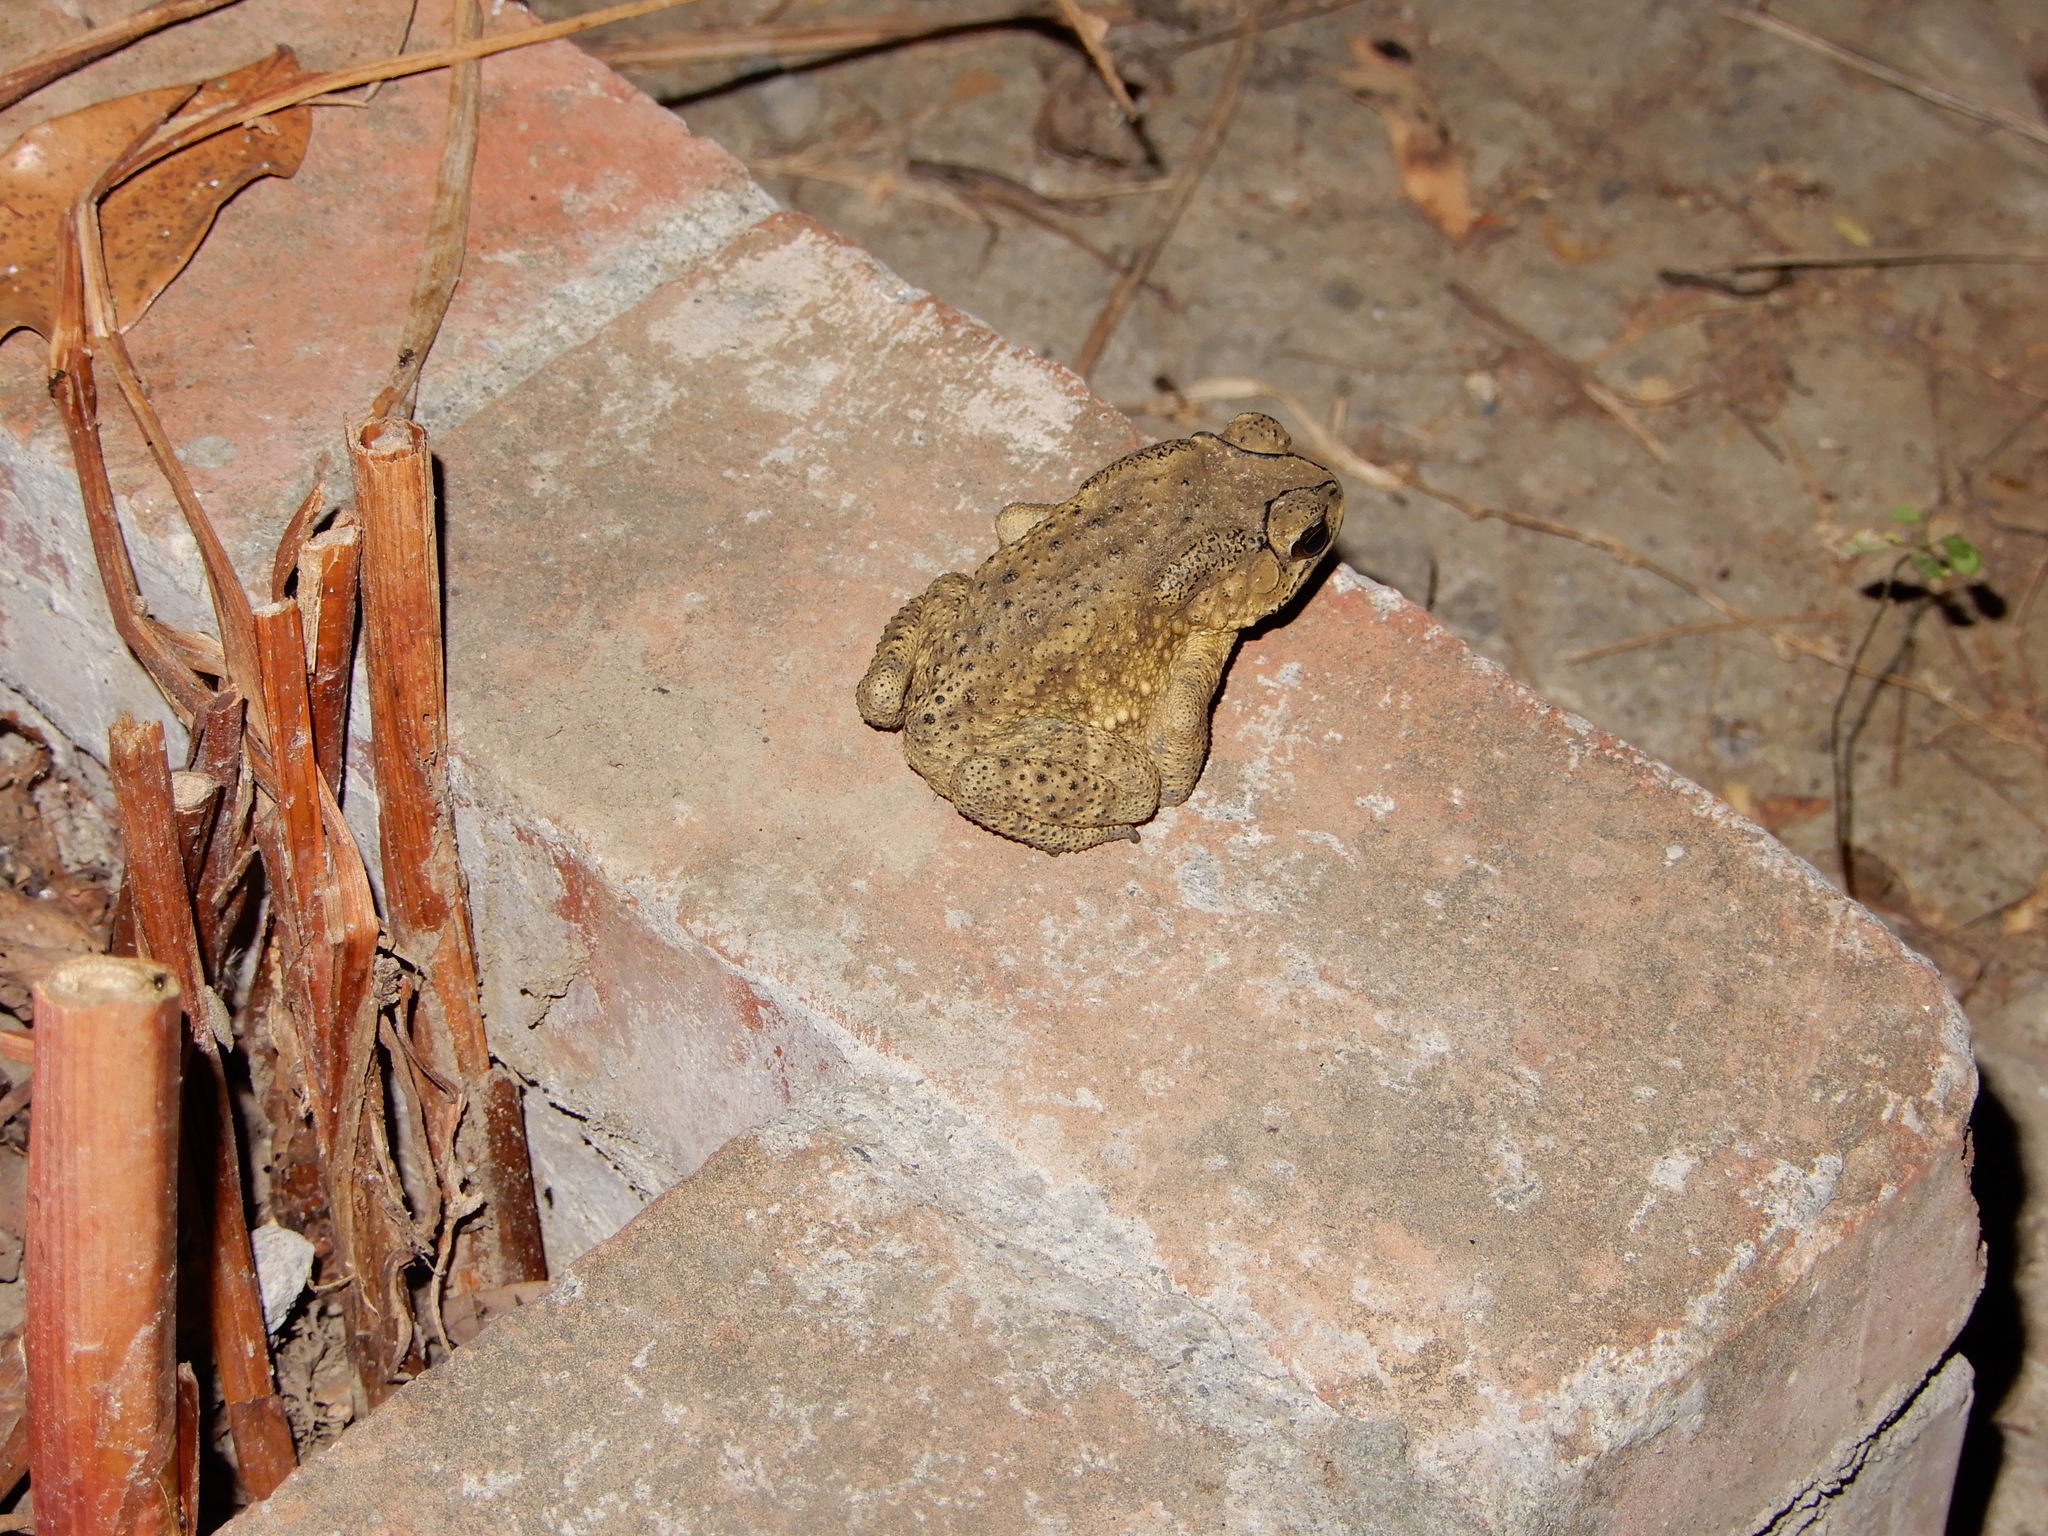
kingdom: Animalia
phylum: Chordata
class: Amphibia
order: Anura
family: Bufonidae
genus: Duttaphrynus
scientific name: Duttaphrynus melanostictus
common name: Common sunda toad
